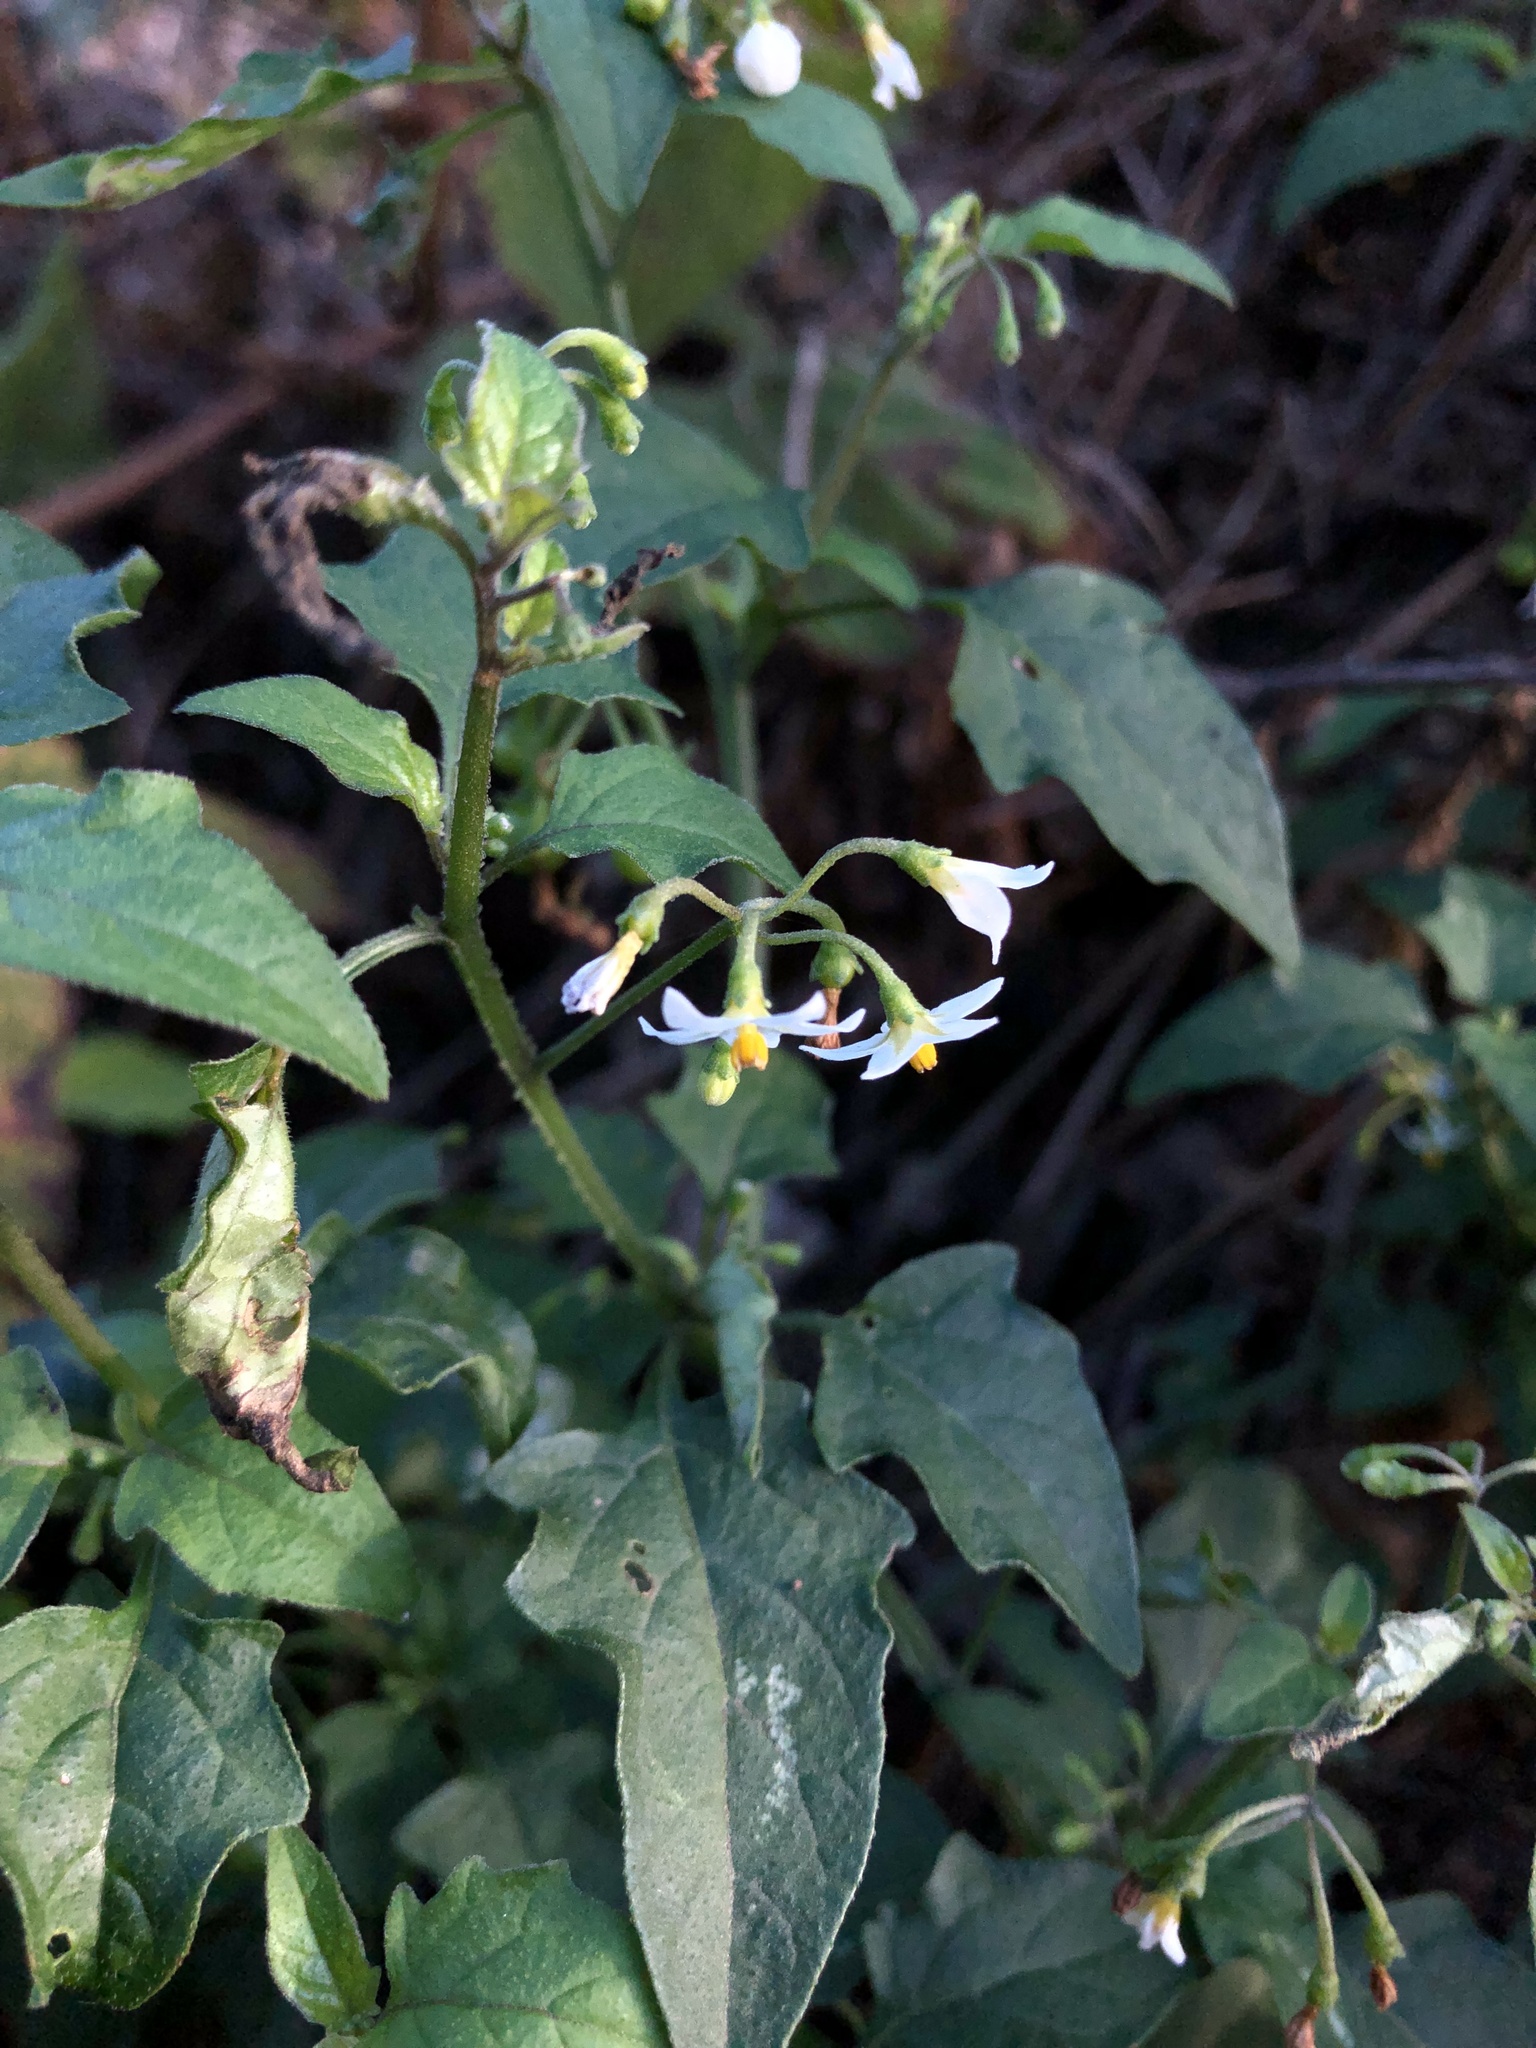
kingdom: Plantae
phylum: Tracheophyta
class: Magnoliopsida
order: Solanales
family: Solanaceae
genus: Solanum
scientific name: Solanum americanum
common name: American black nightshade
